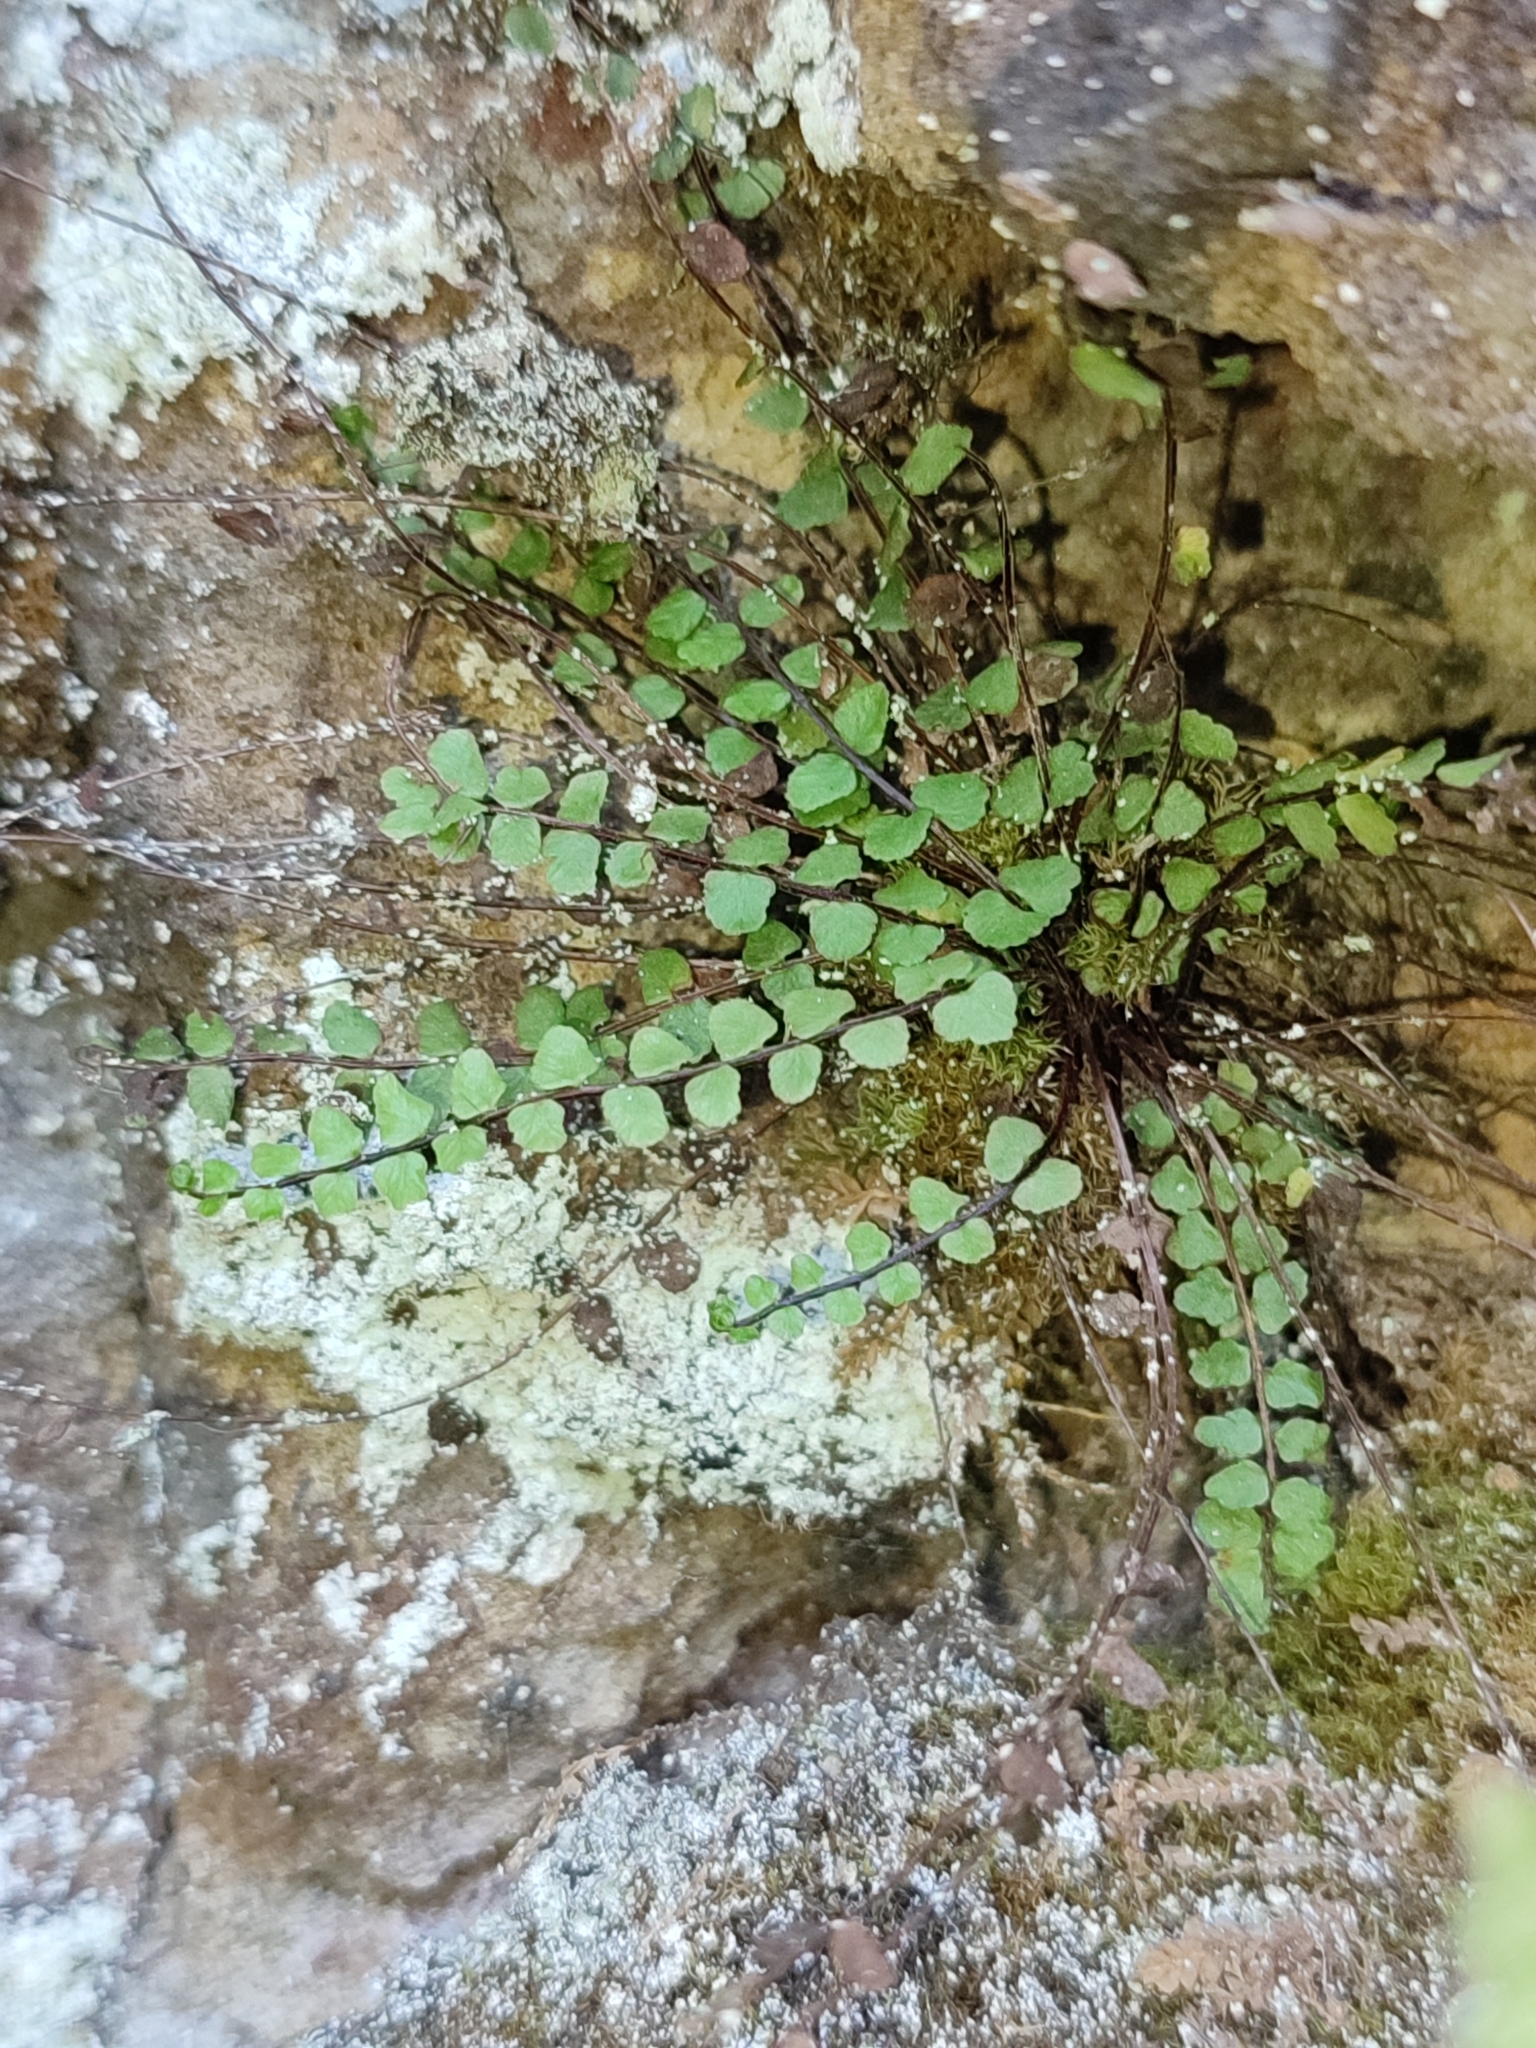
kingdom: Plantae
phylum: Tracheophyta
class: Polypodiopsida
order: Polypodiales
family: Aspleniaceae
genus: Asplenium
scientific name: Asplenium trichomanes
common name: Maidenhair spleenwort
